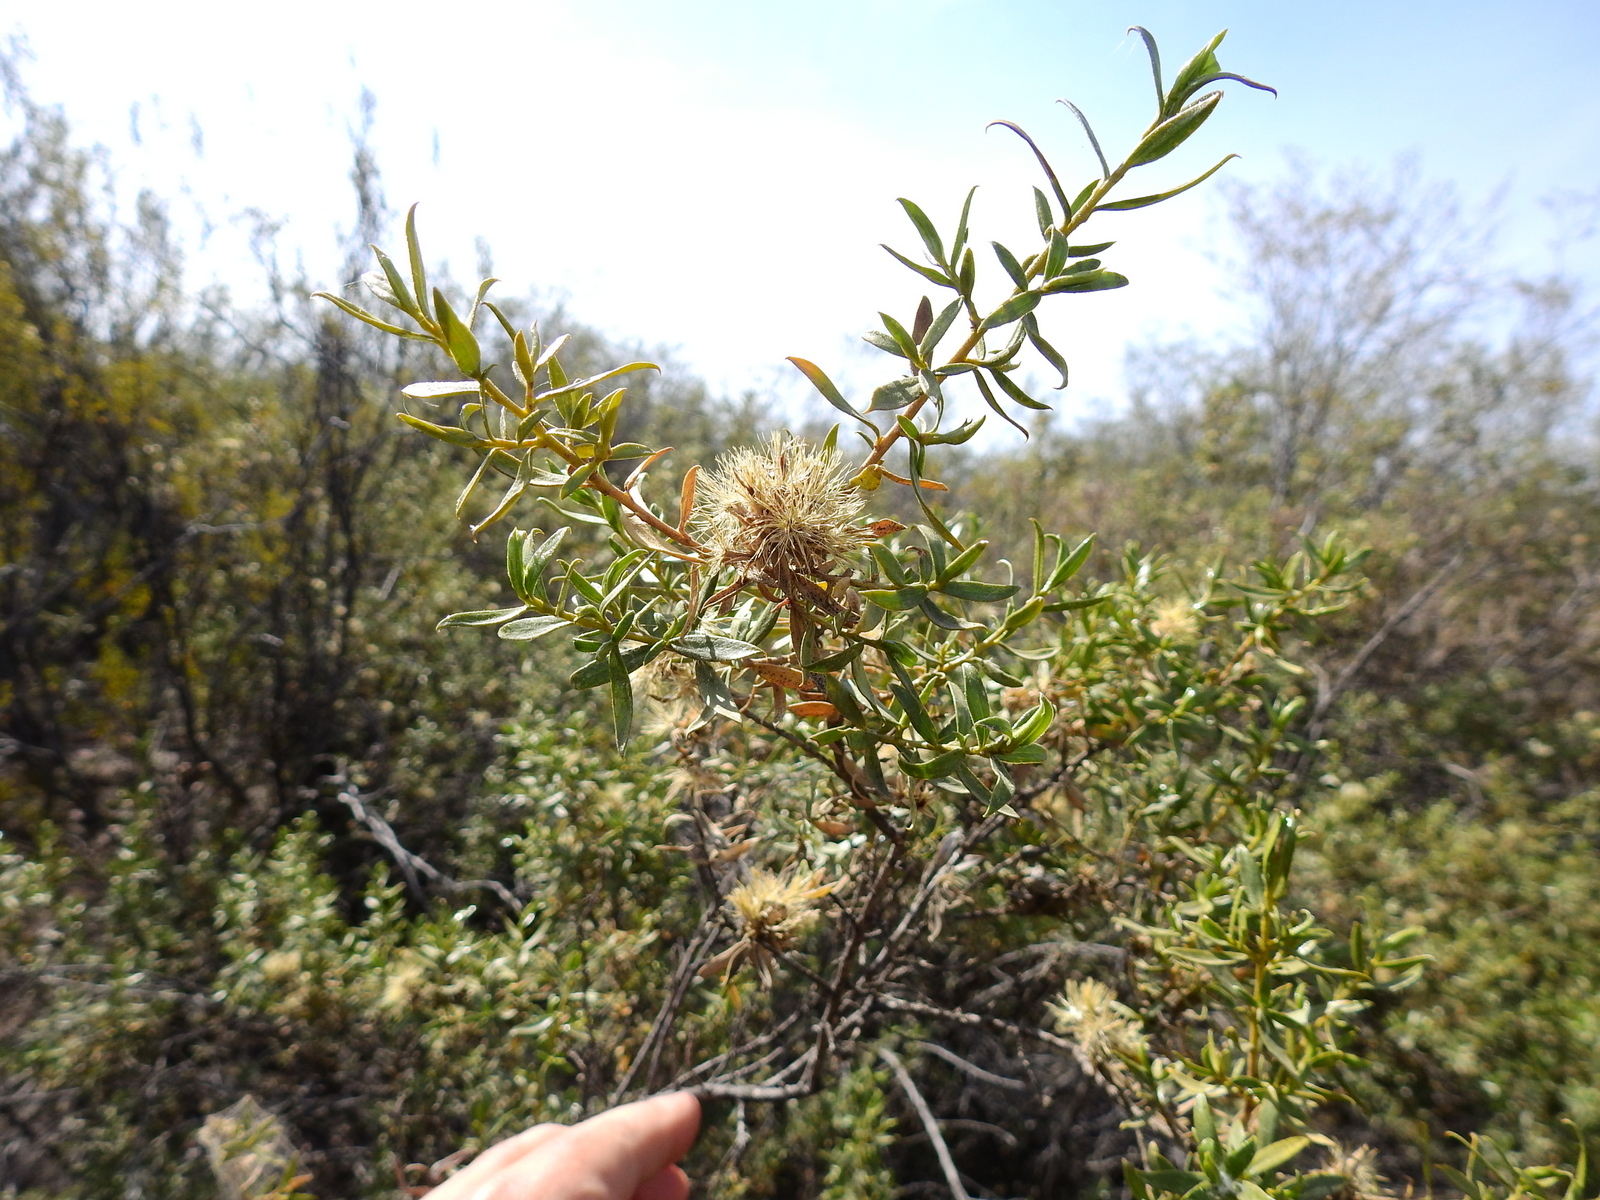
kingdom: Plantae
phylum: Tracheophyta
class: Magnoliopsida
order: Asterales
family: Asteraceae
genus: Gochnatia
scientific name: Gochnatia glutinosa
